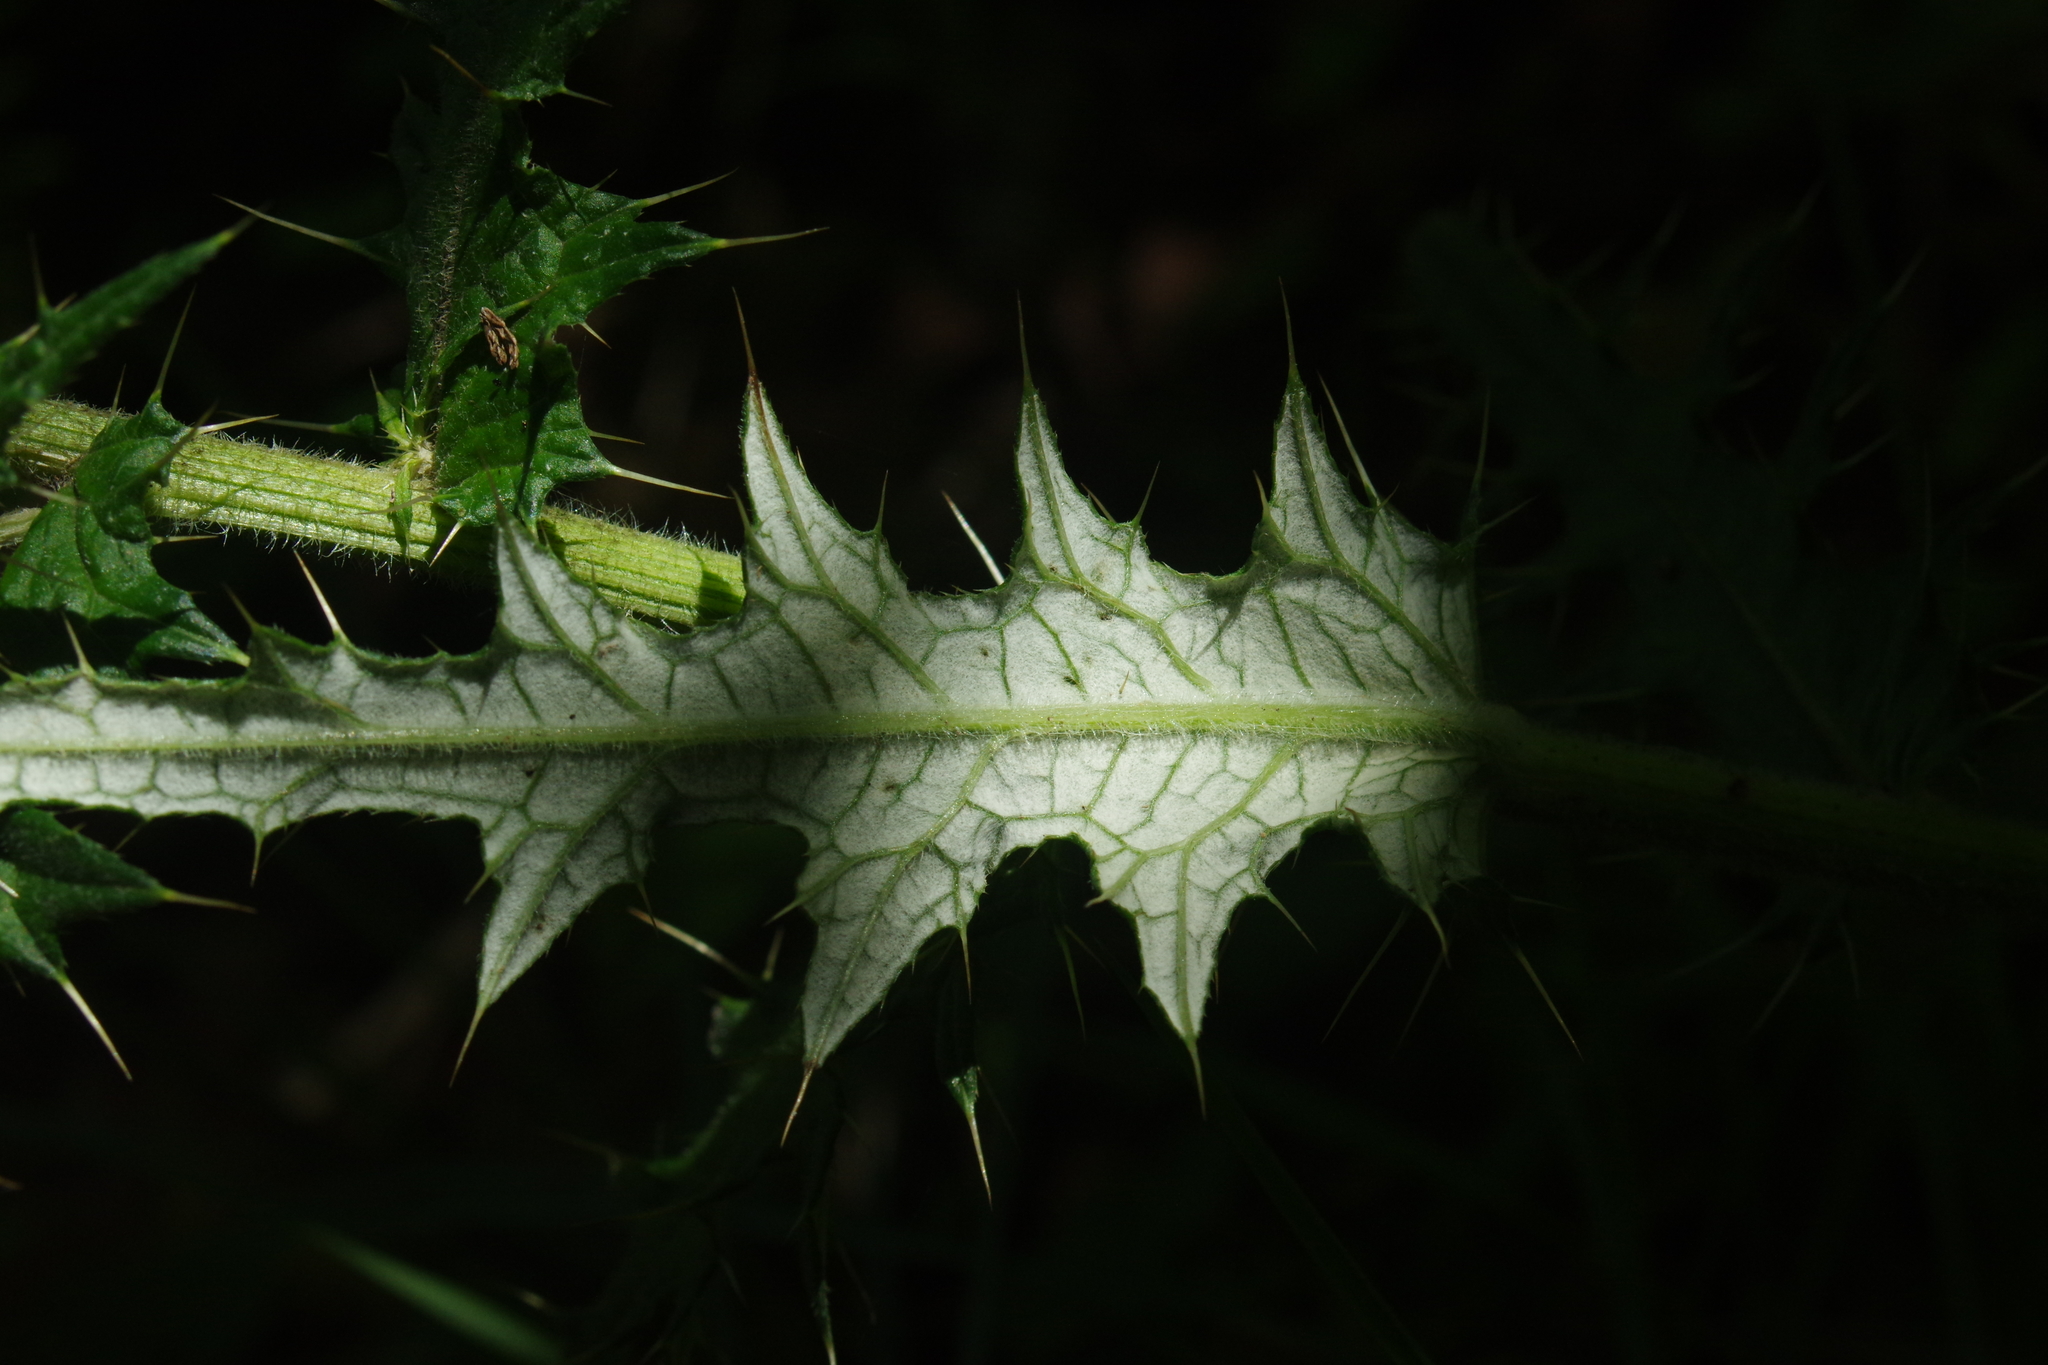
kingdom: Plantae
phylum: Tracheophyta
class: Magnoliopsida
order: Asterales
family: Asteraceae
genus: Cirsium
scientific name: Cirsium suzukii
